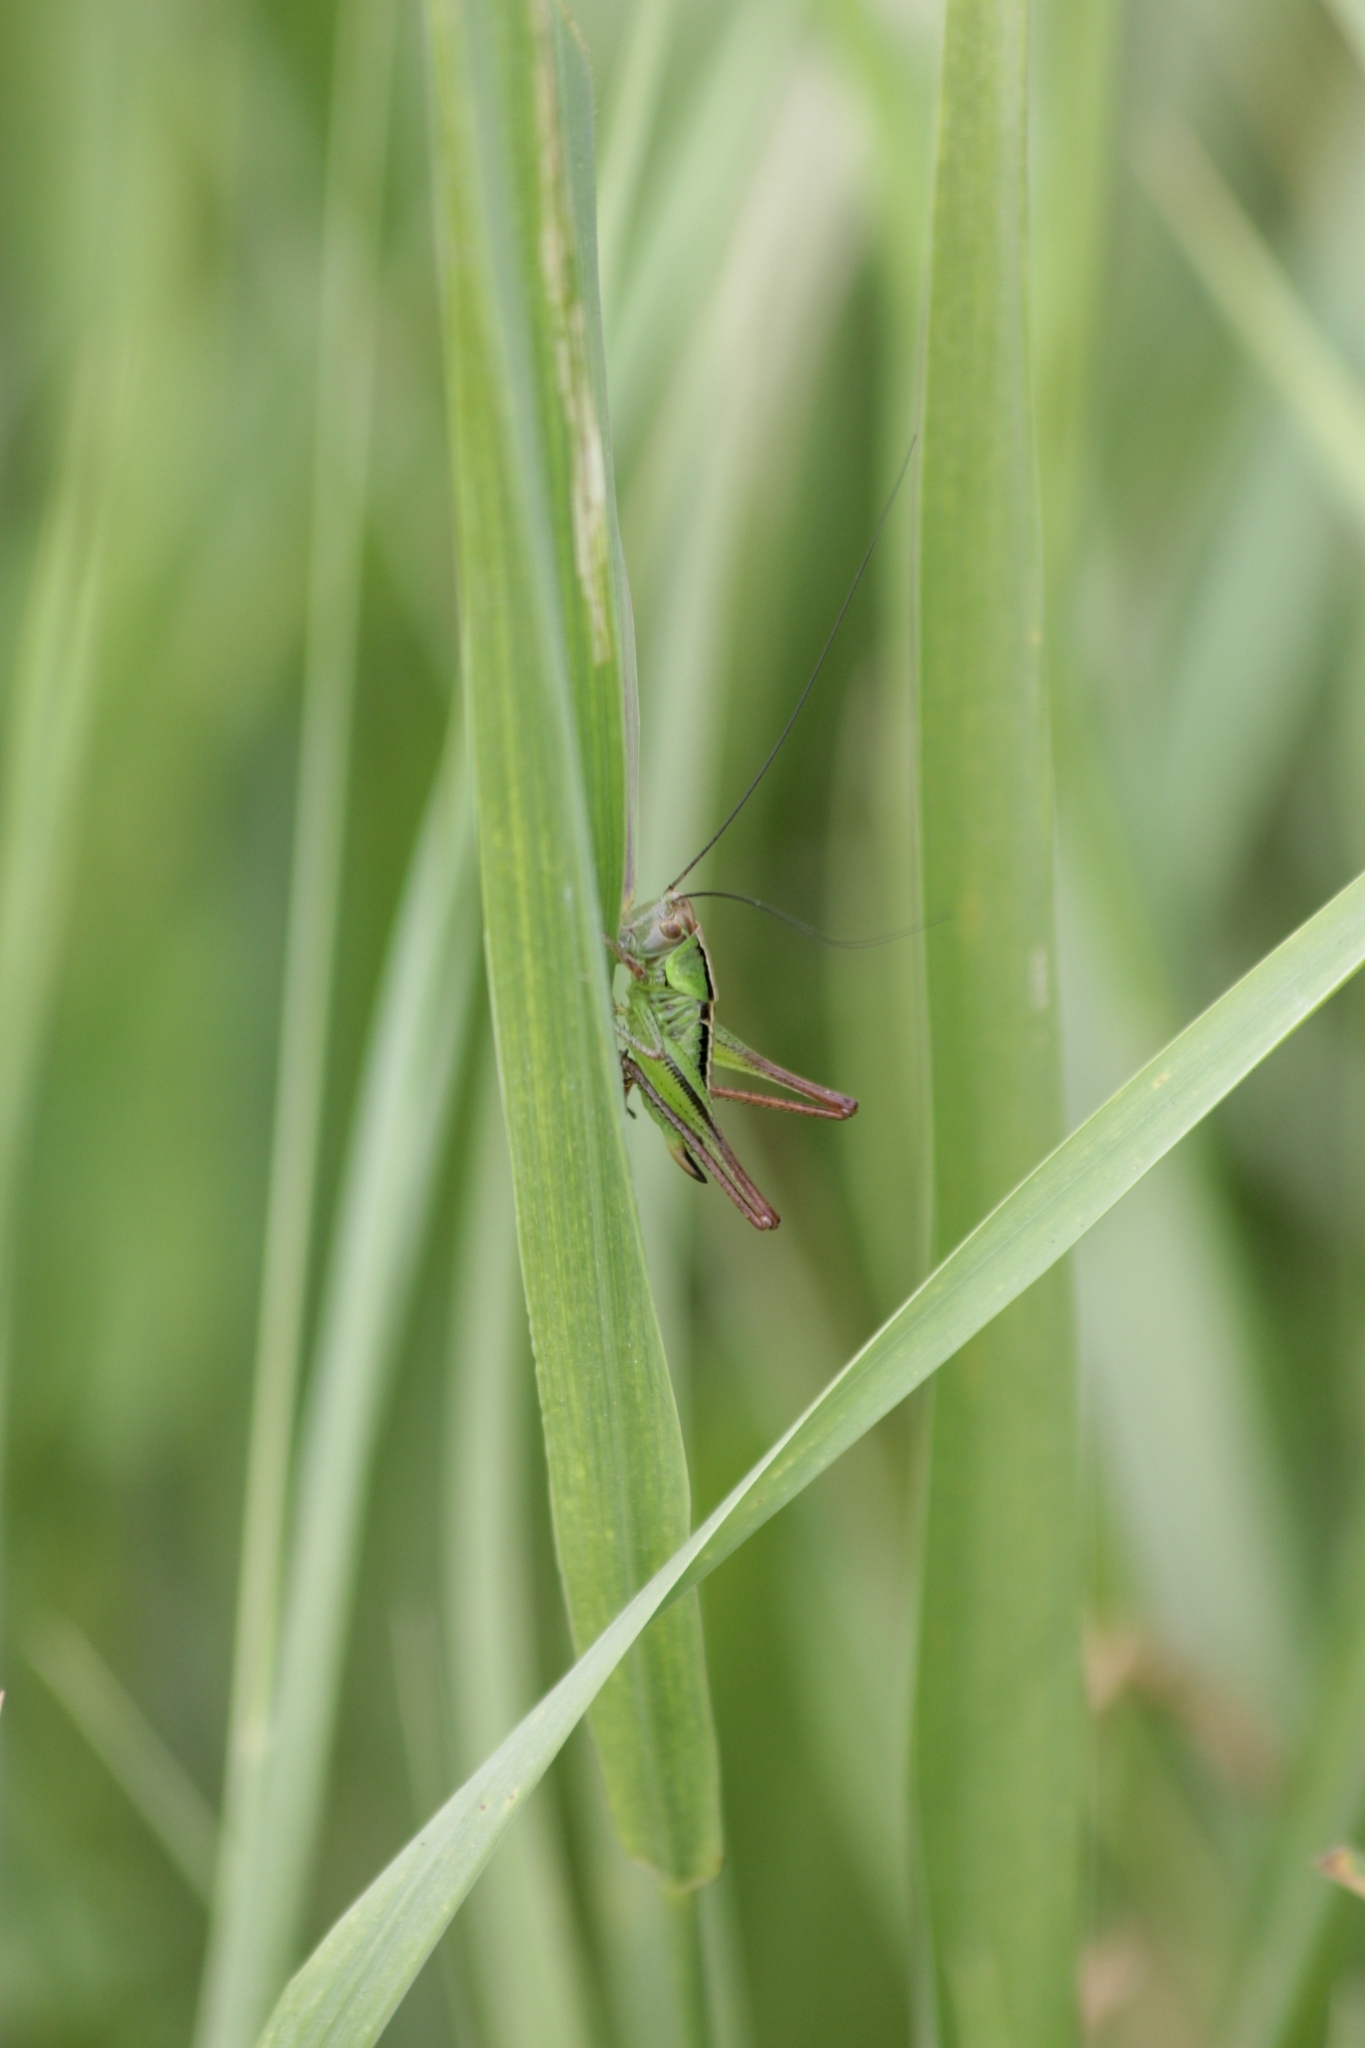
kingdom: Animalia
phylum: Arthropoda
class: Insecta
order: Orthoptera
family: Tettigoniidae
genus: Roeseliana
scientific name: Roeseliana roeselii
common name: Roesel's bush cricket
